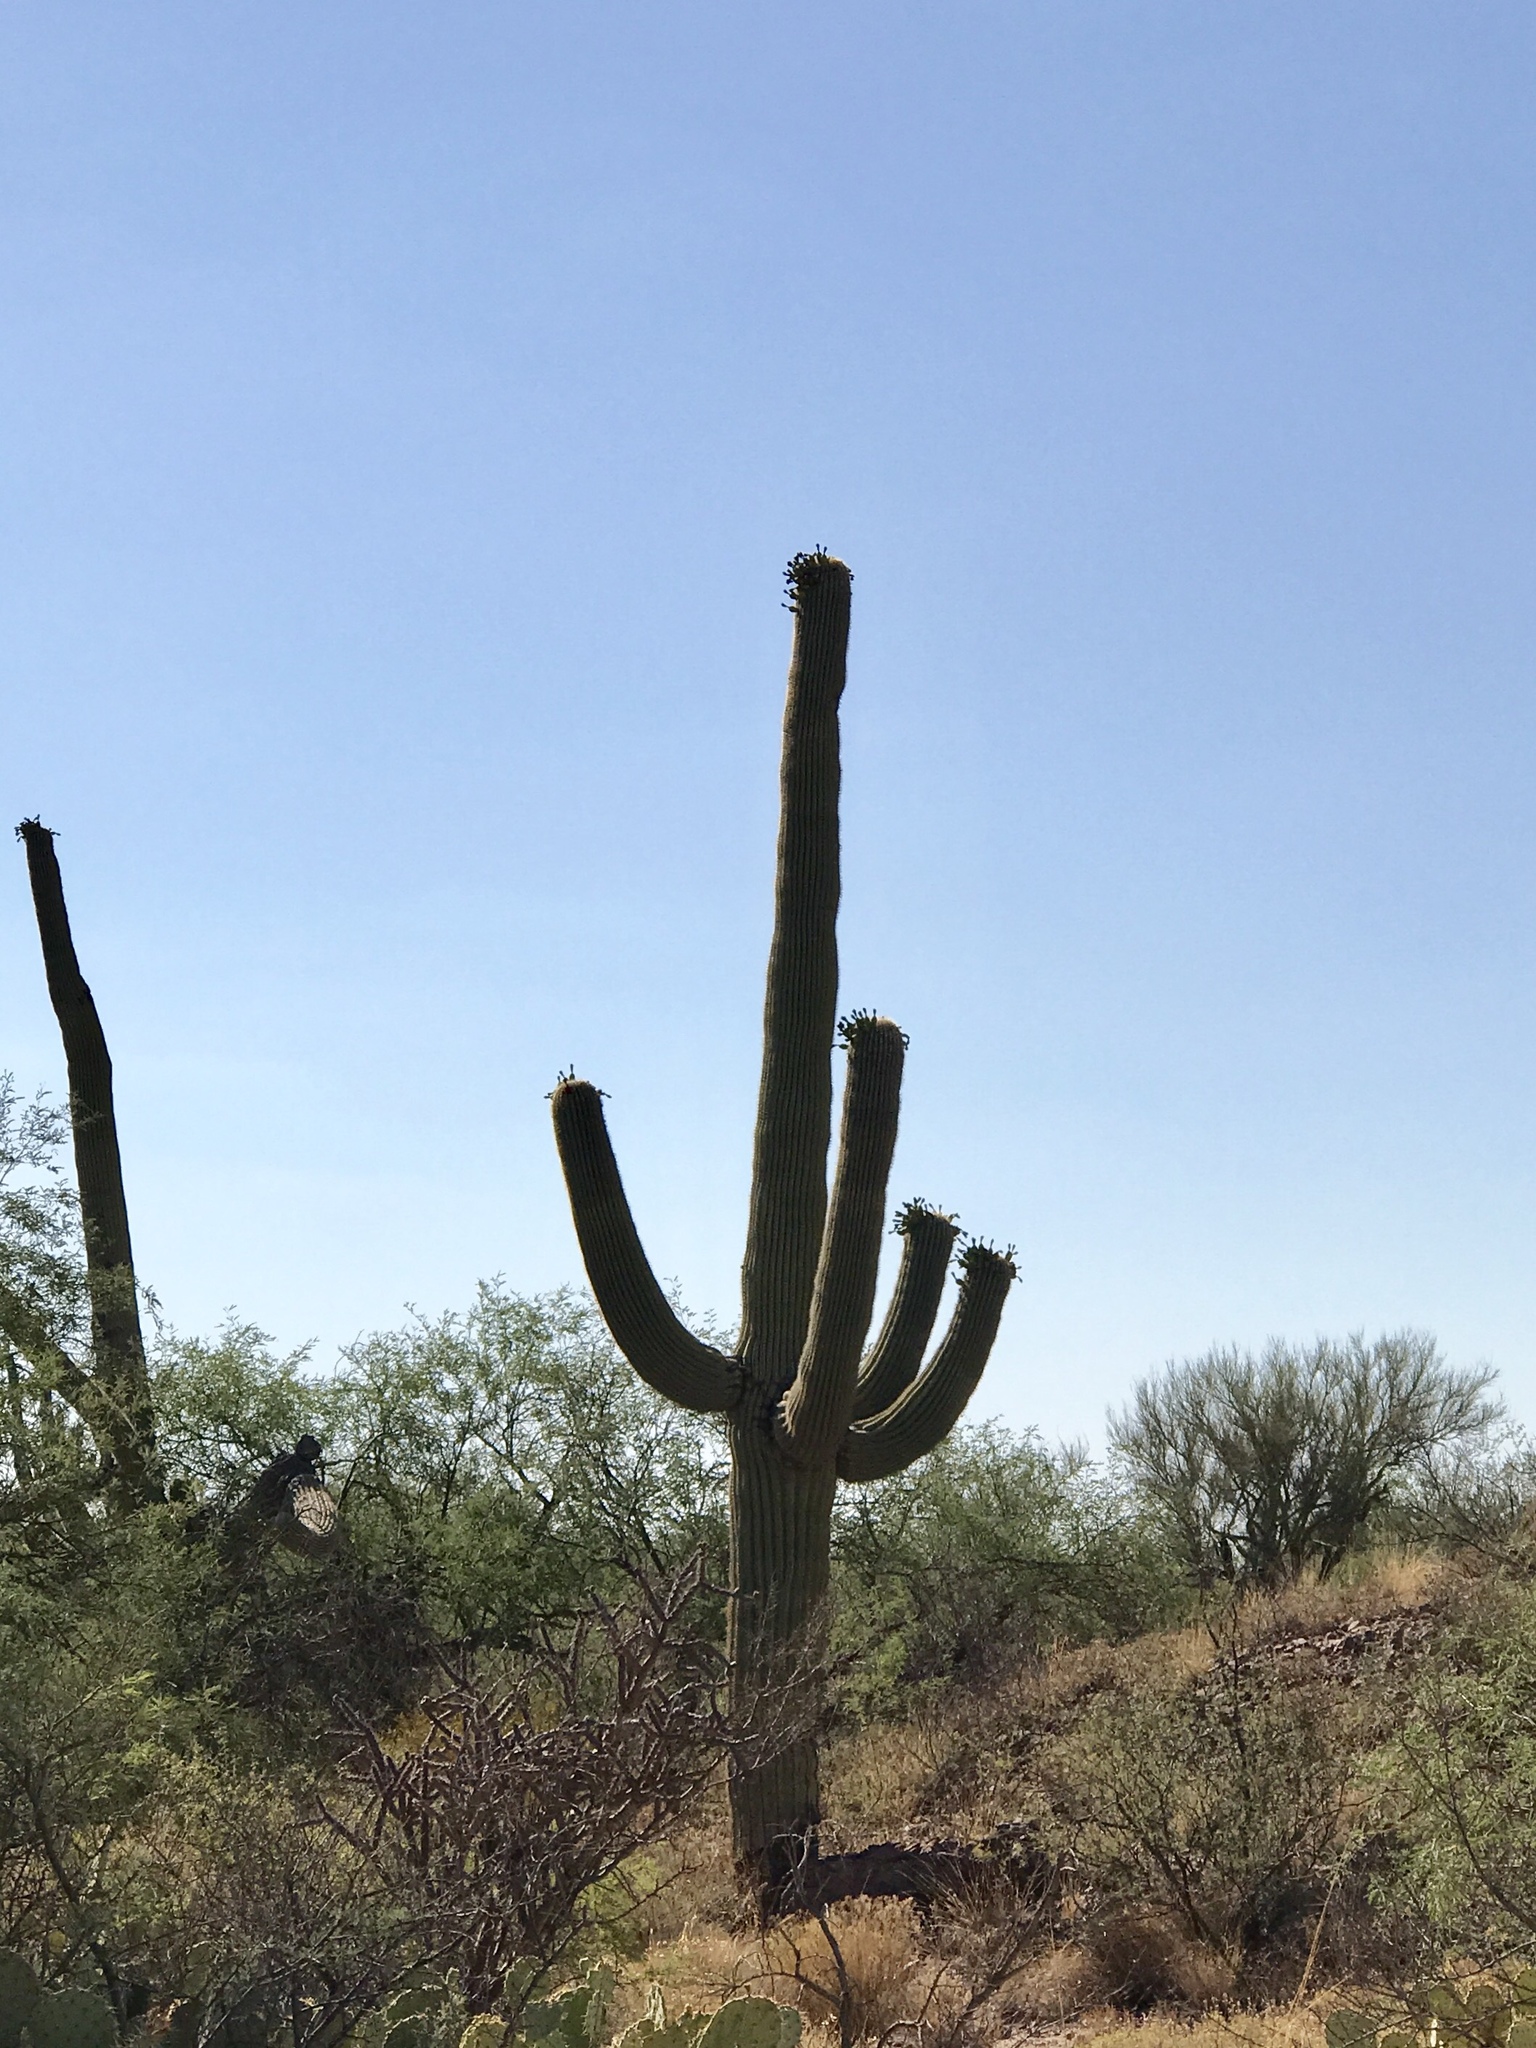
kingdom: Plantae
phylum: Tracheophyta
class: Magnoliopsida
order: Caryophyllales
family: Cactaceae
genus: Carnegiea
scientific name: Carnegiea gigantea
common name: Saguaro
